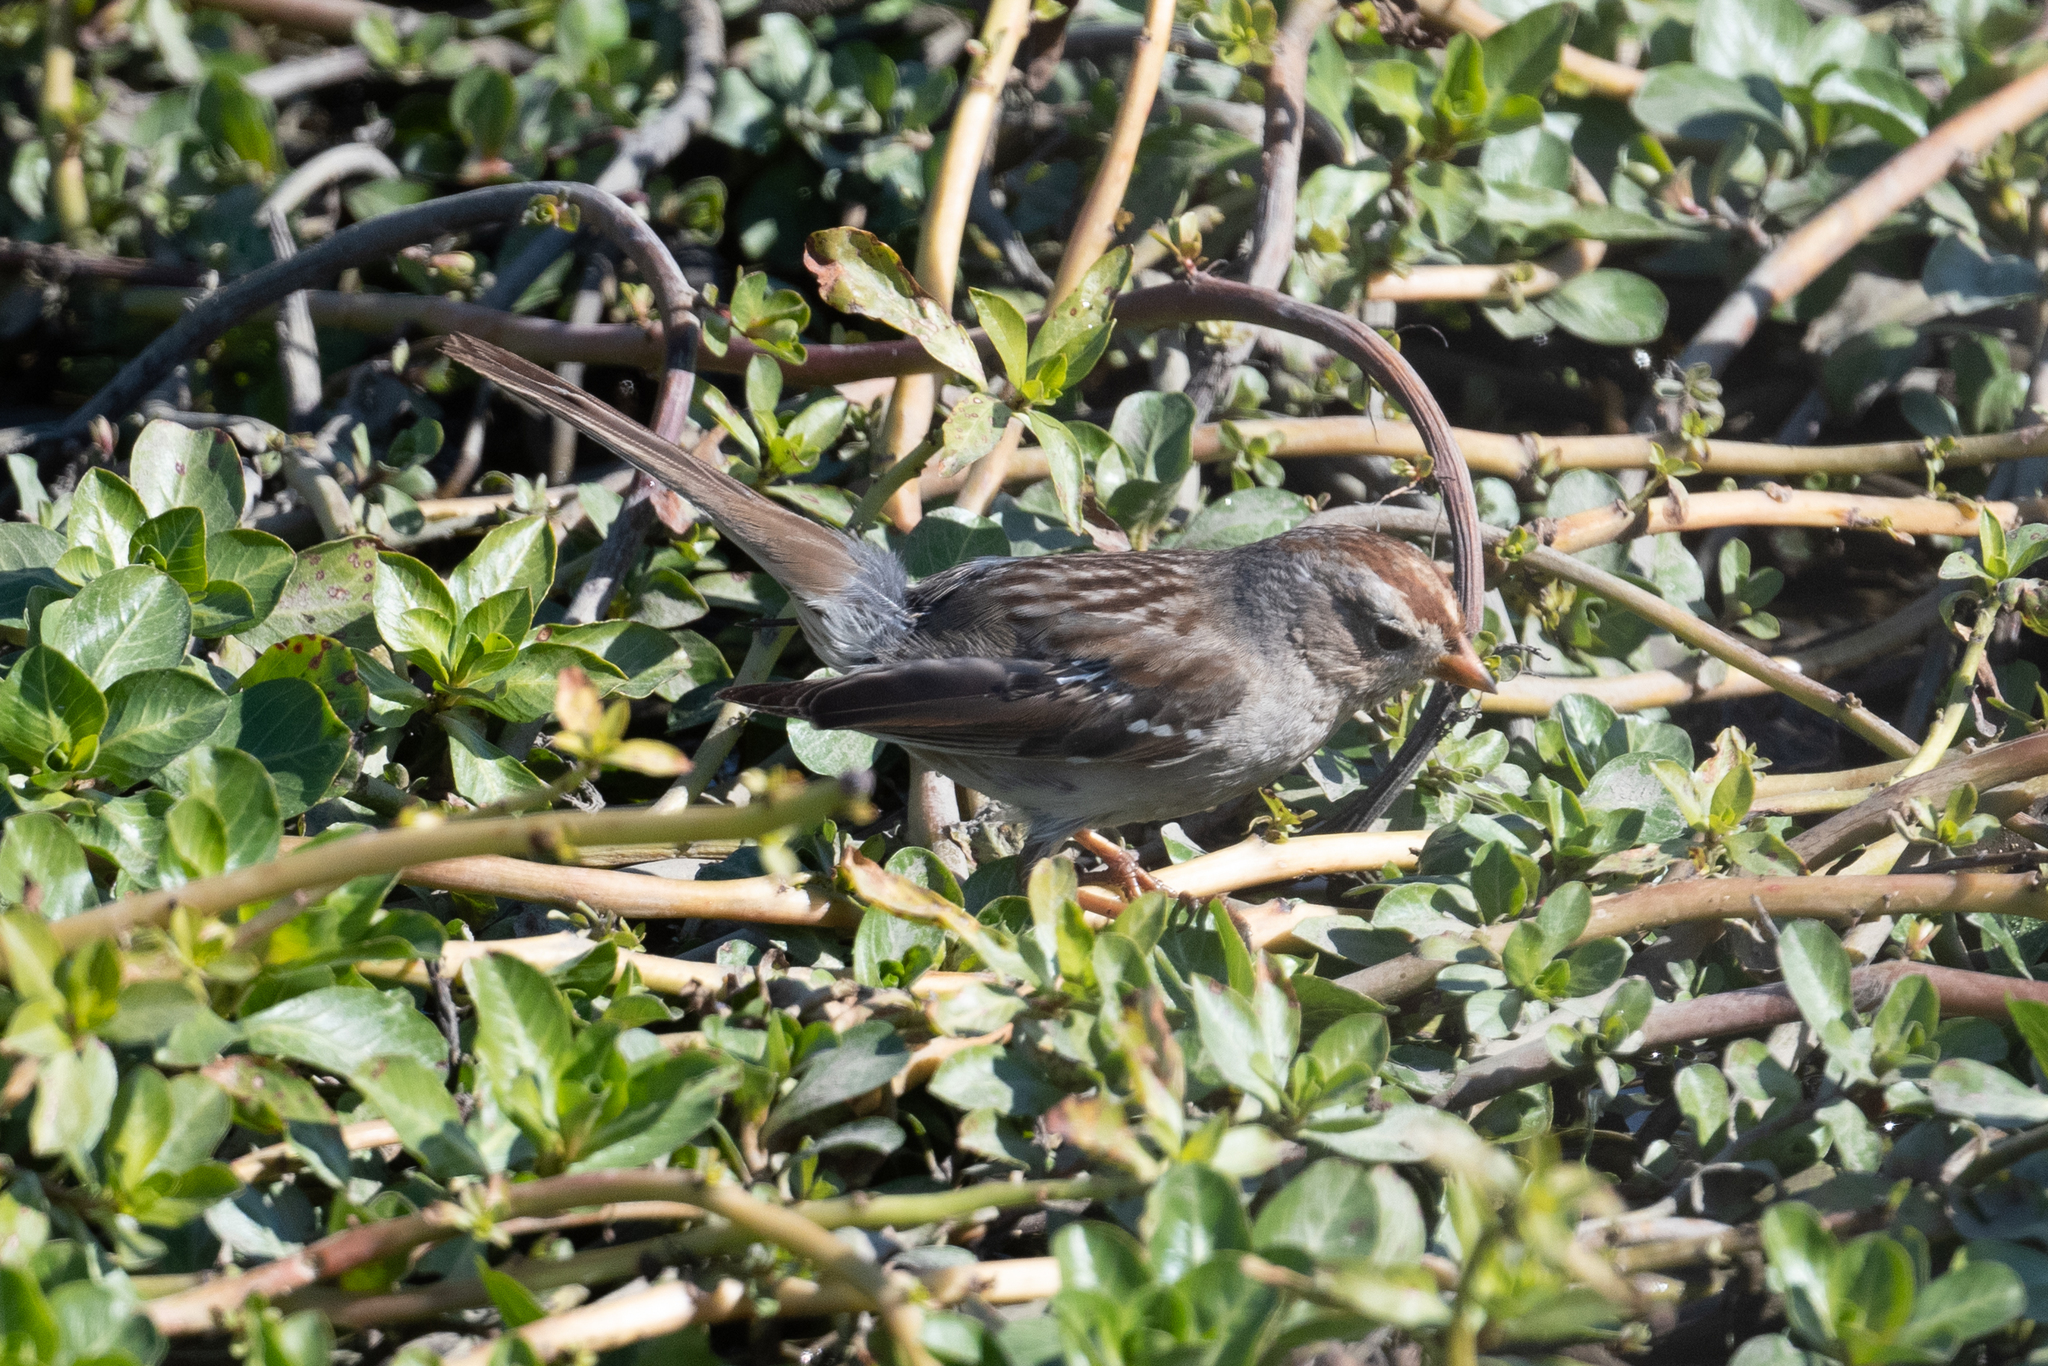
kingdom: Animalia
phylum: Chordata
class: Aves
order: Passeriformes
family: Passerellidae
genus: Zonotrichia
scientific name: Zonotrichia leucophrys
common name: White-crowned sparrow
